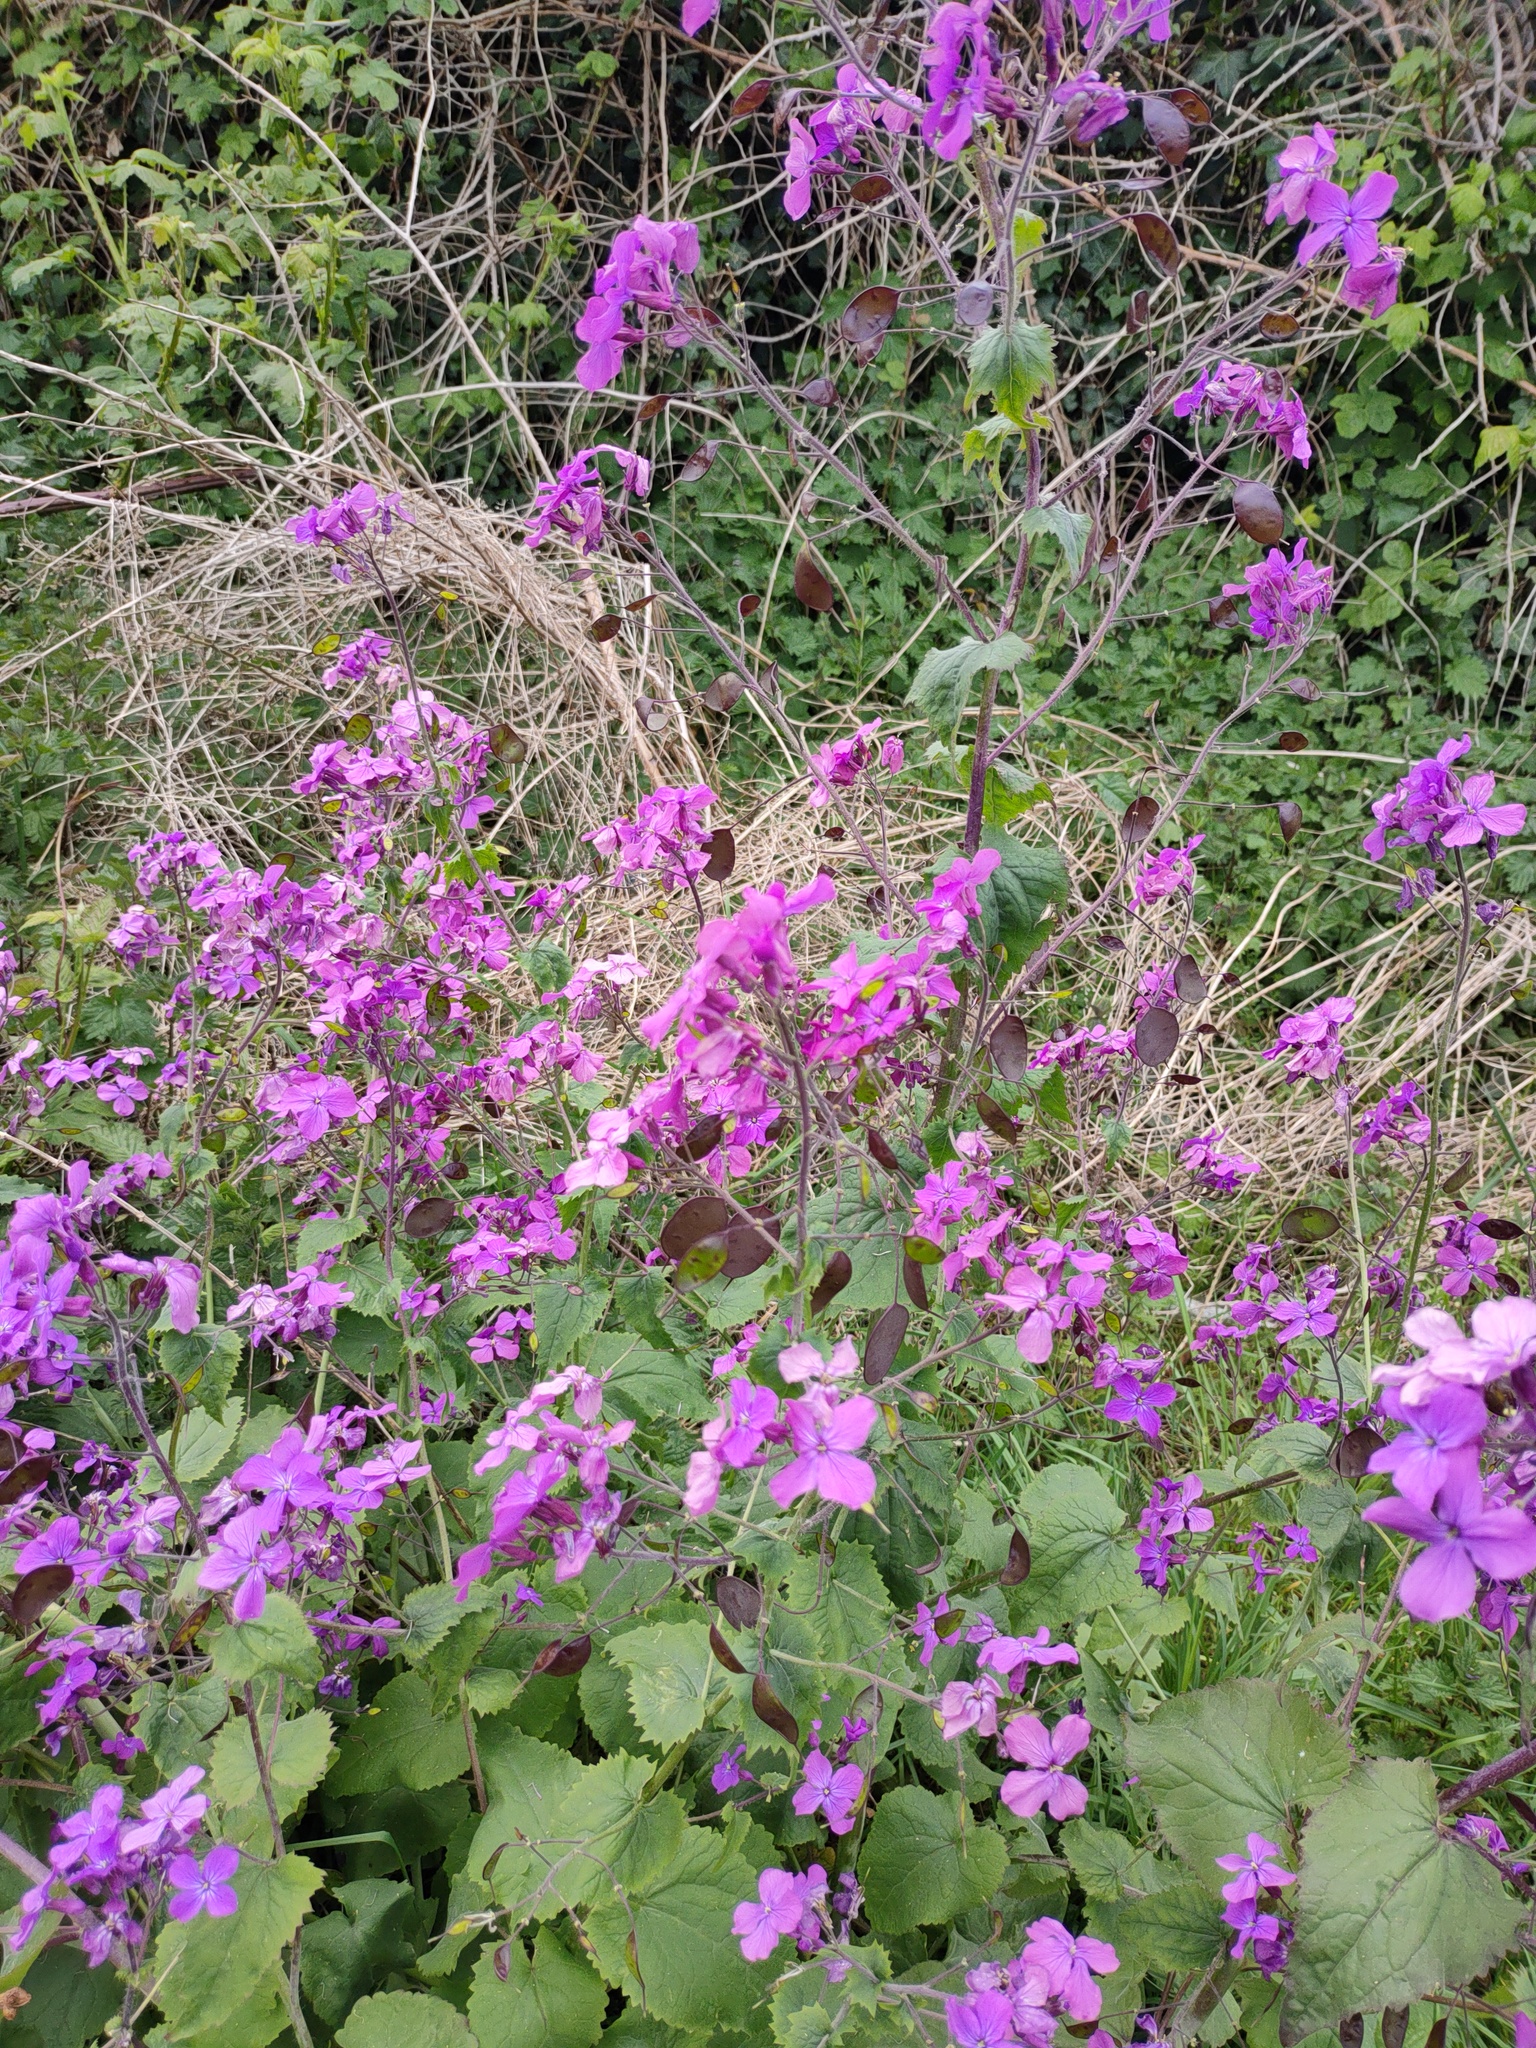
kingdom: Plantae
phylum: Tracheophyta
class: Magnoliopsida
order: Brassicales
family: Brassicaceae
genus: Lunaria
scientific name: Lunaria annua
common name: Honesty
